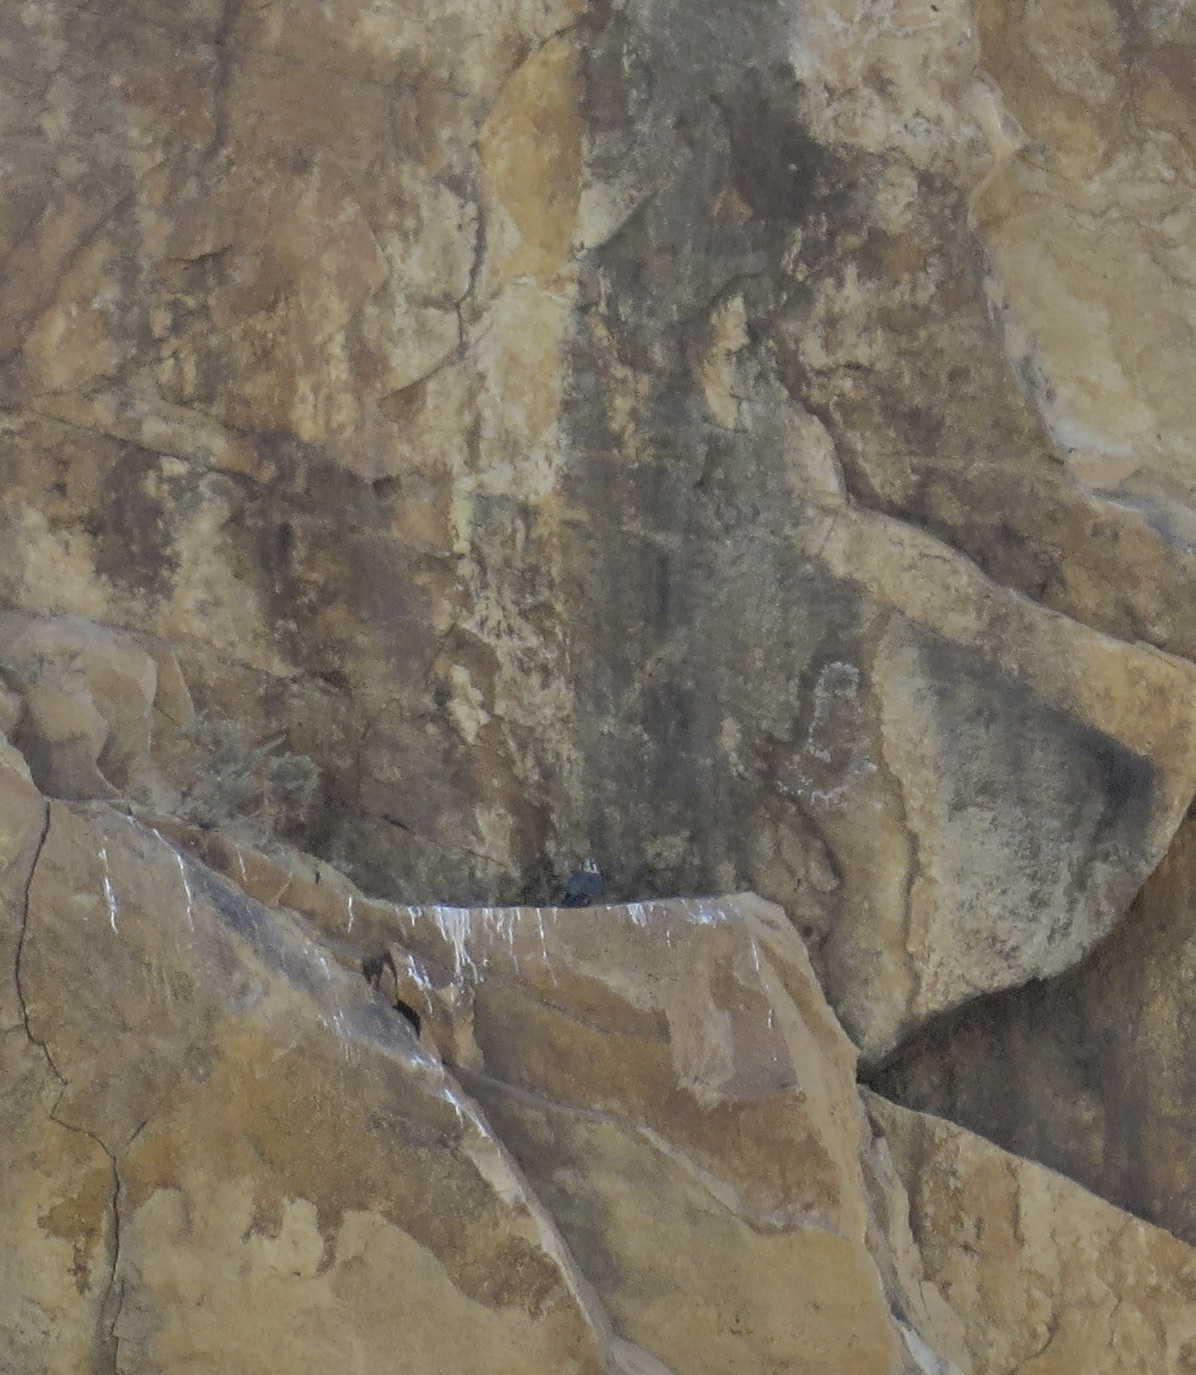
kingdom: Animalia
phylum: Chordata
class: Aves
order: Falconiformes
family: Falconidae
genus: Falco
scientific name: Falco peregrinus
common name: Peregrine falcon
